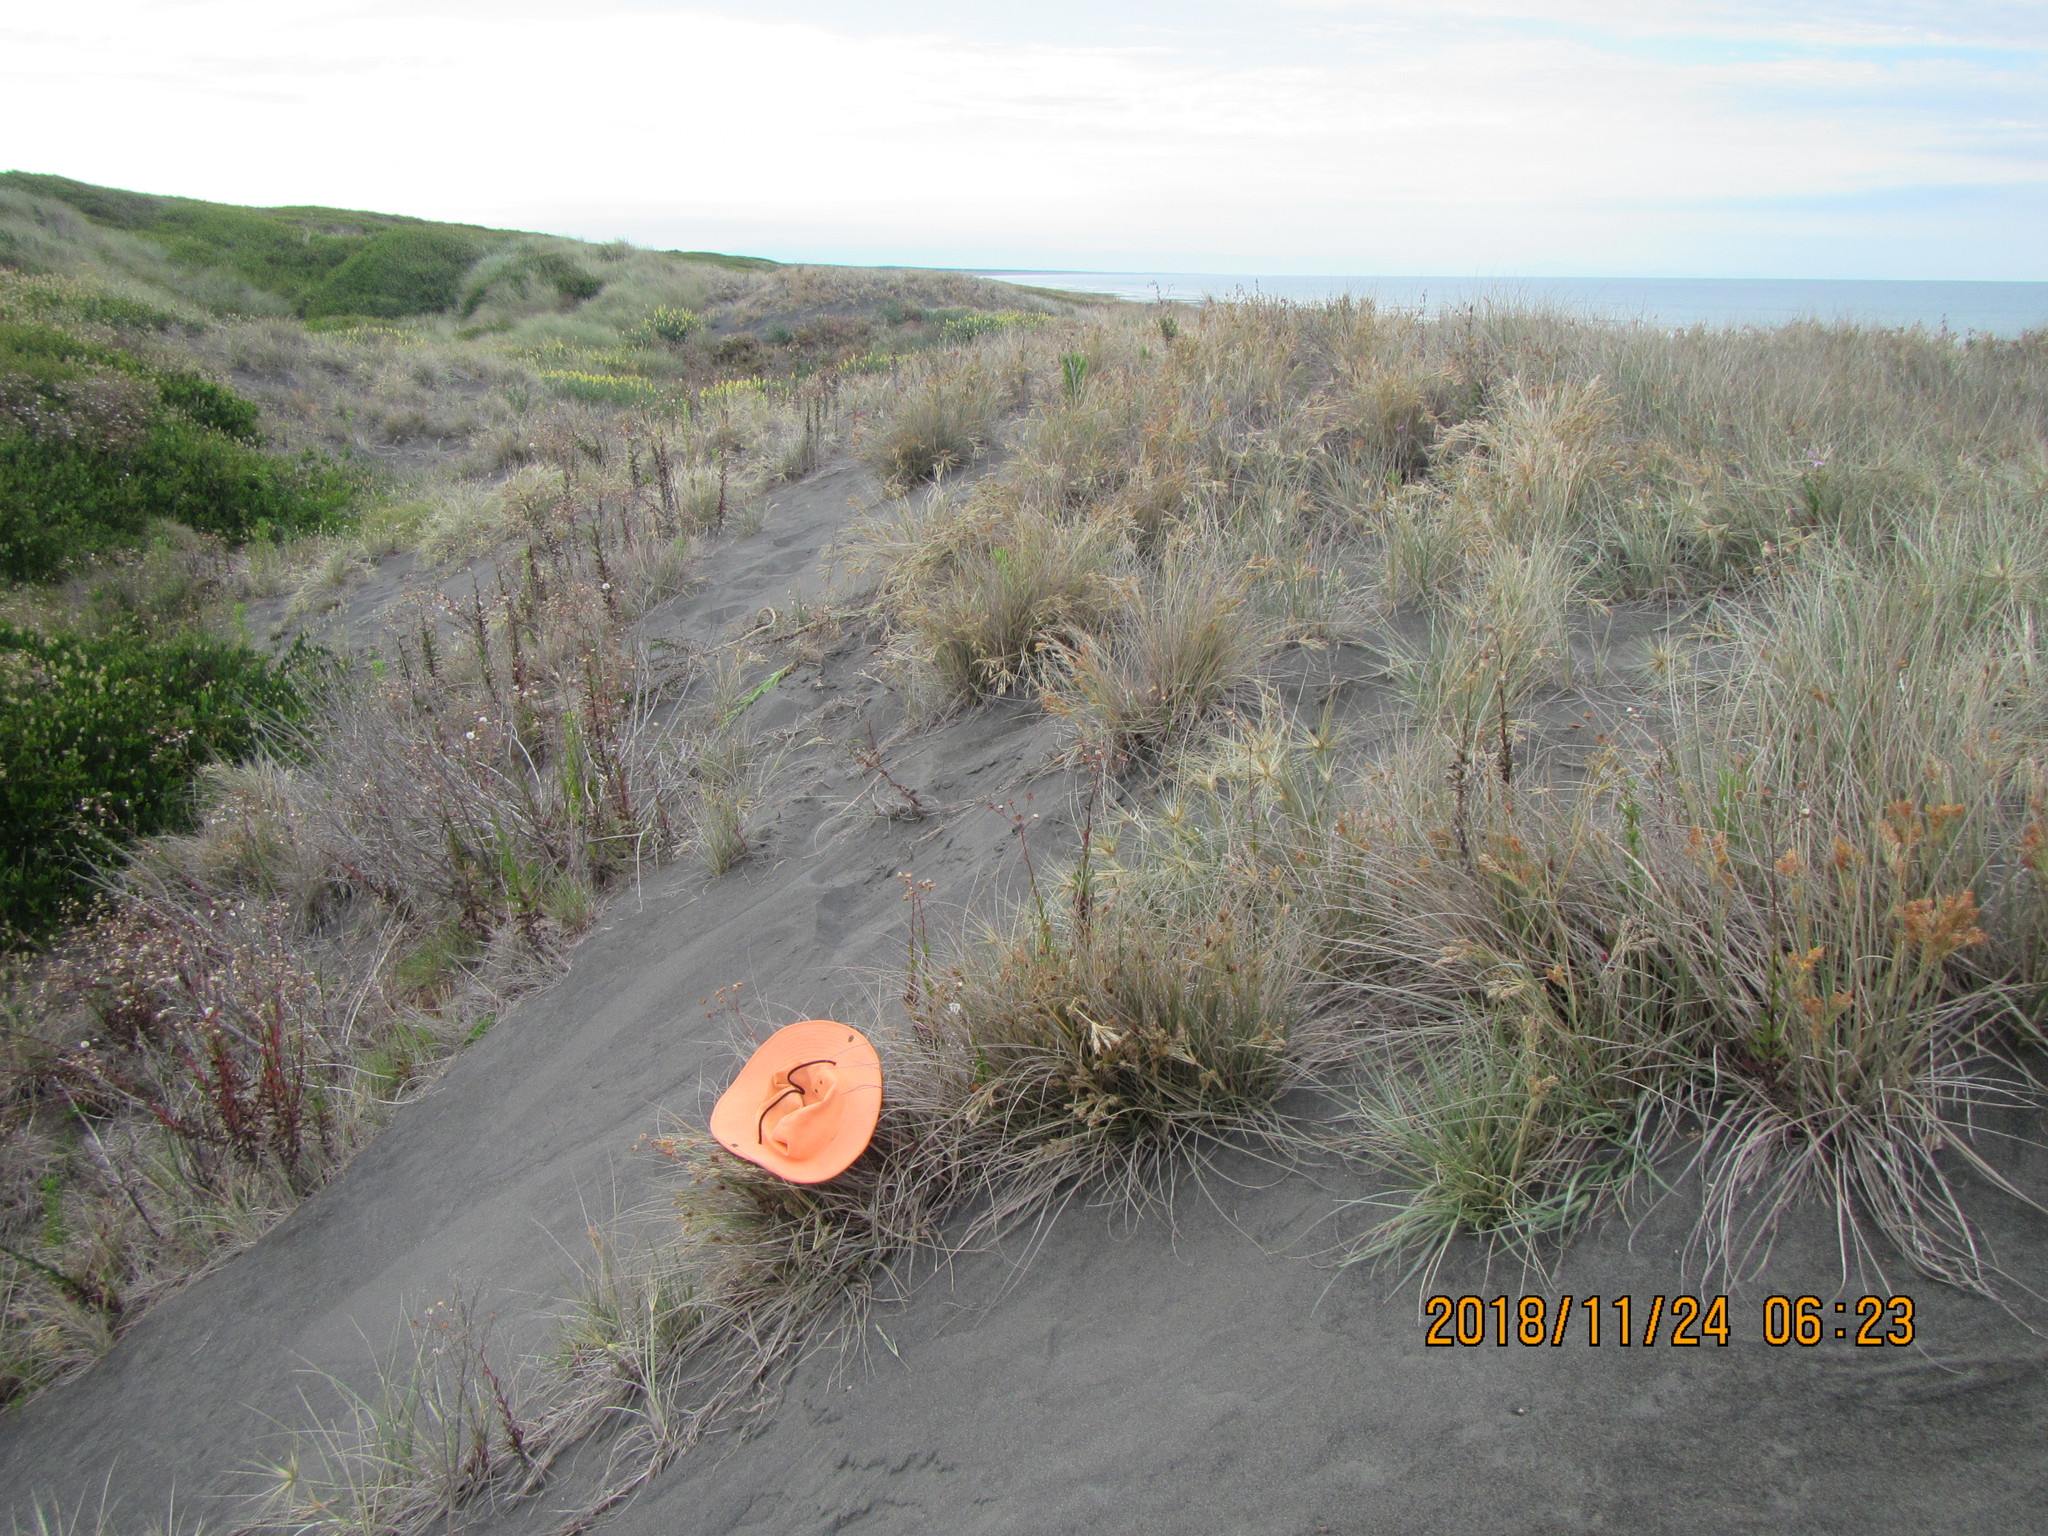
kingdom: Animalia
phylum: Arthropoda
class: Arachnida
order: Araneae
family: Theridiidae
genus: Steatoda
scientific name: Steatoda capensis
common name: Cobweb weaver
